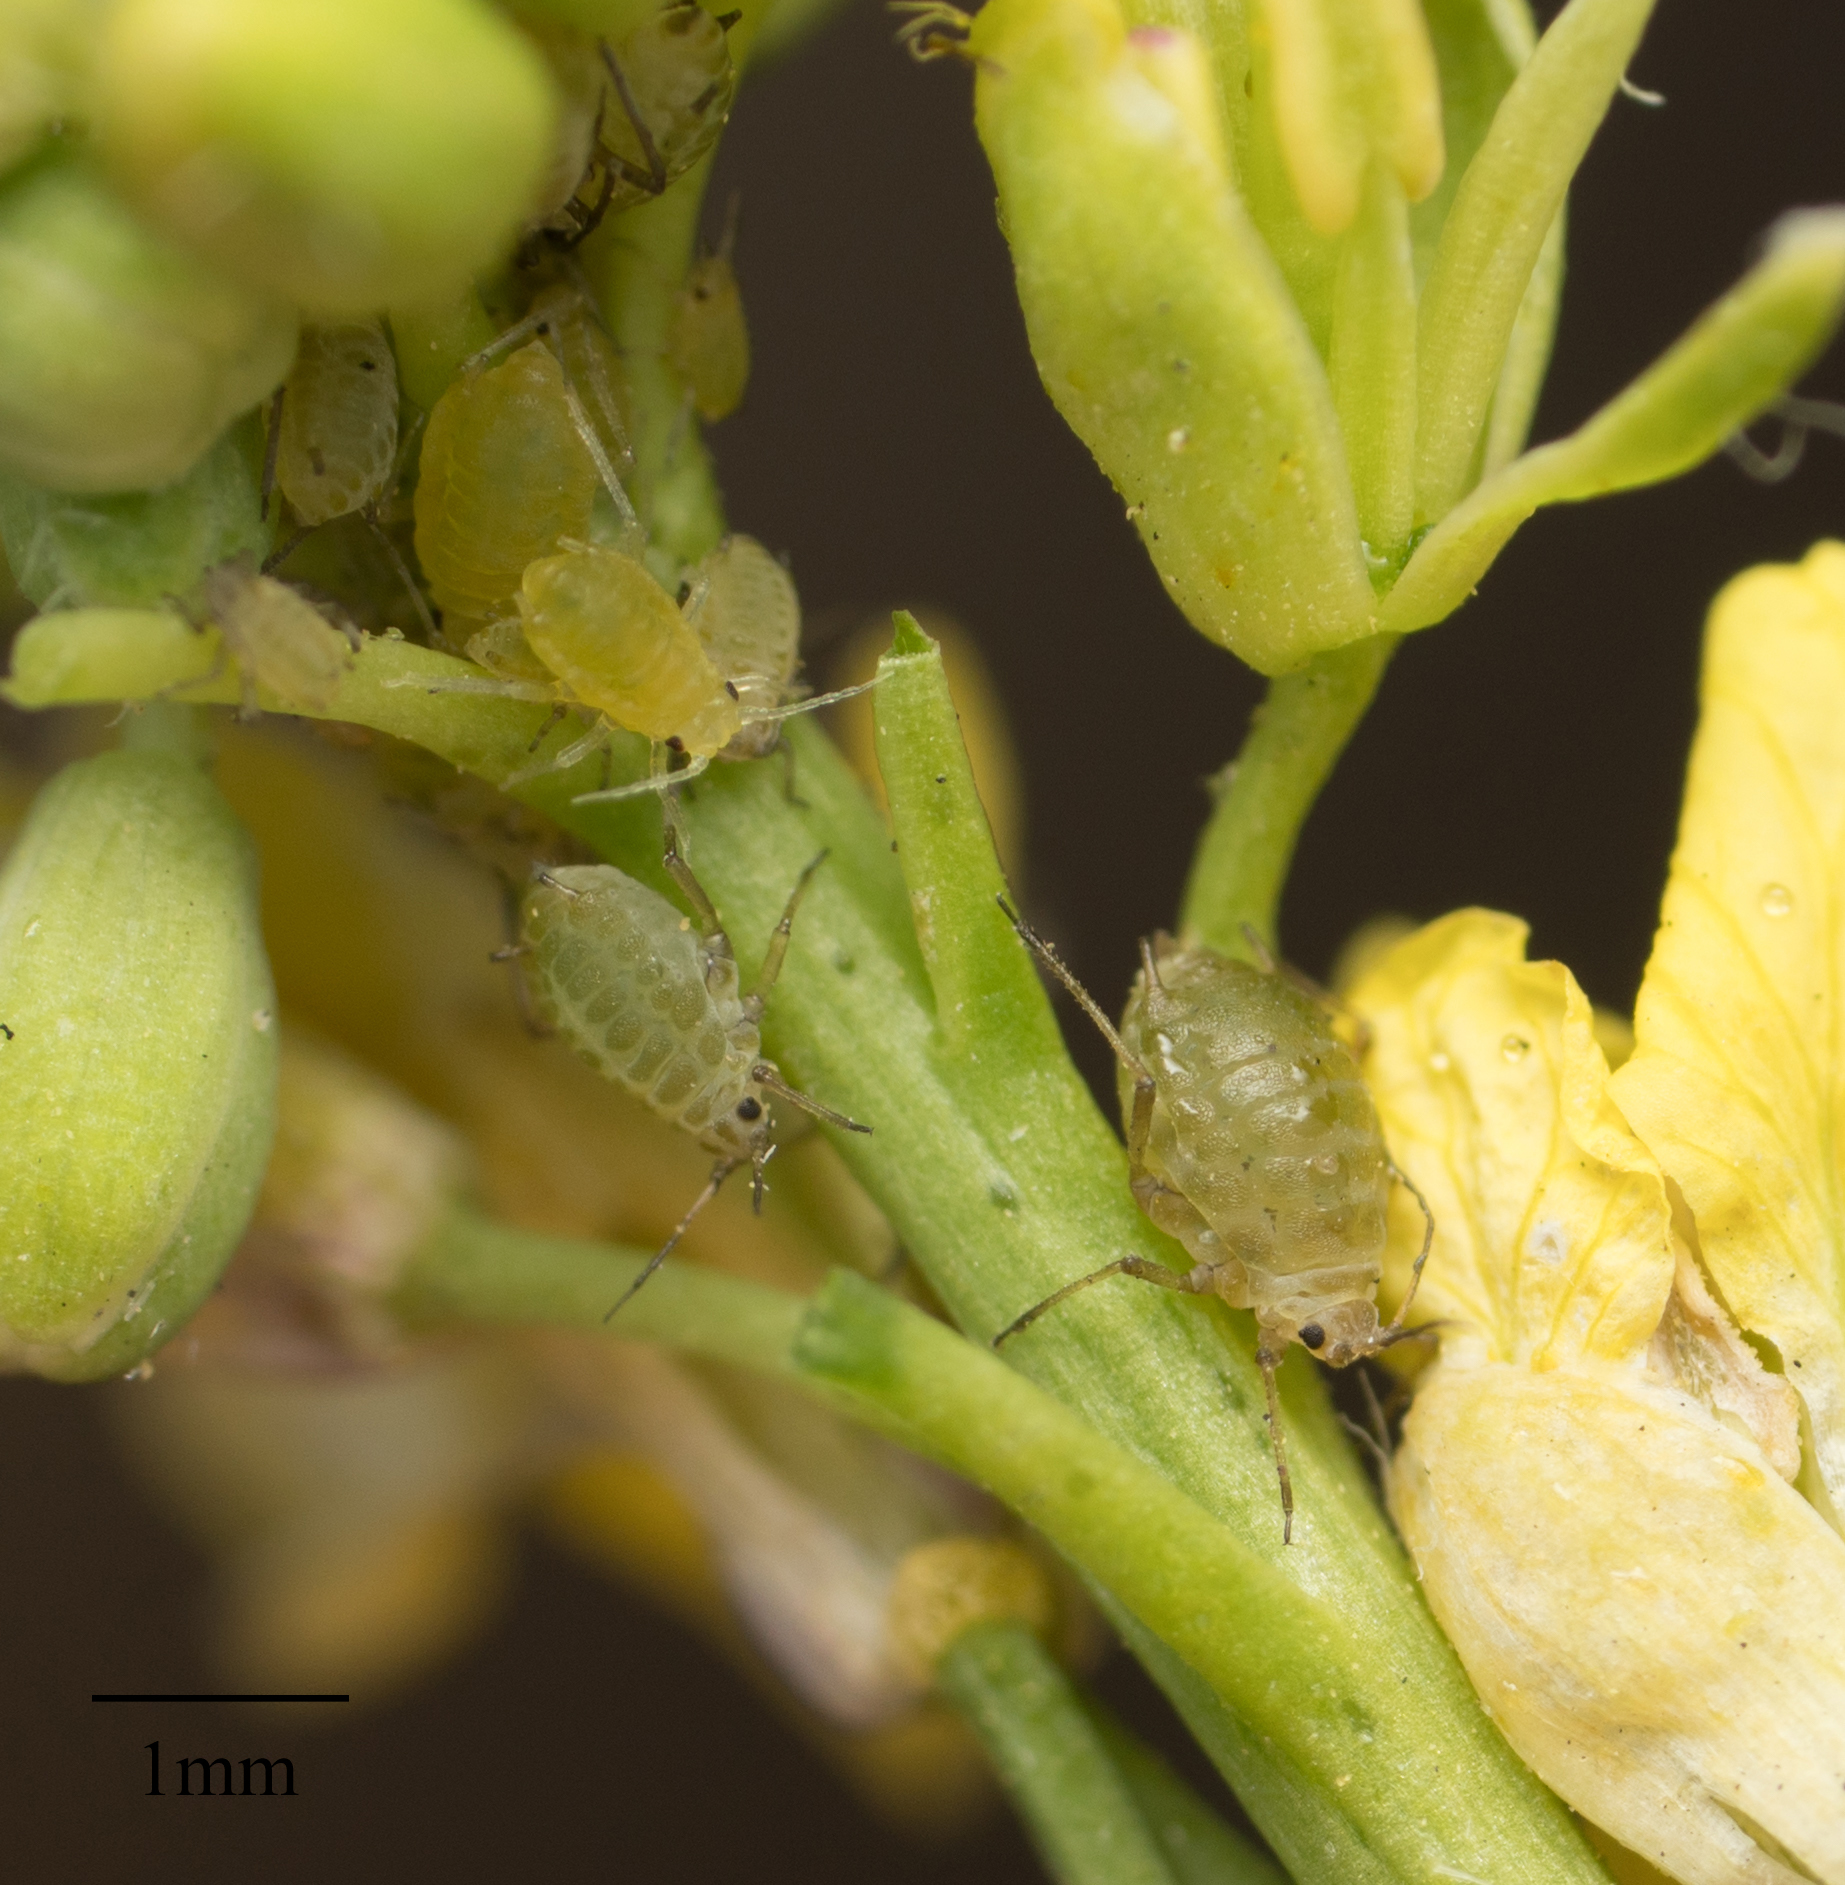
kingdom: Animalia
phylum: Arthropoda
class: Insecta
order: Hemiptera
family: Aphididae
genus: Lipaphis
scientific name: Lipaphis pseudobrassicae
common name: Turnip aphid
